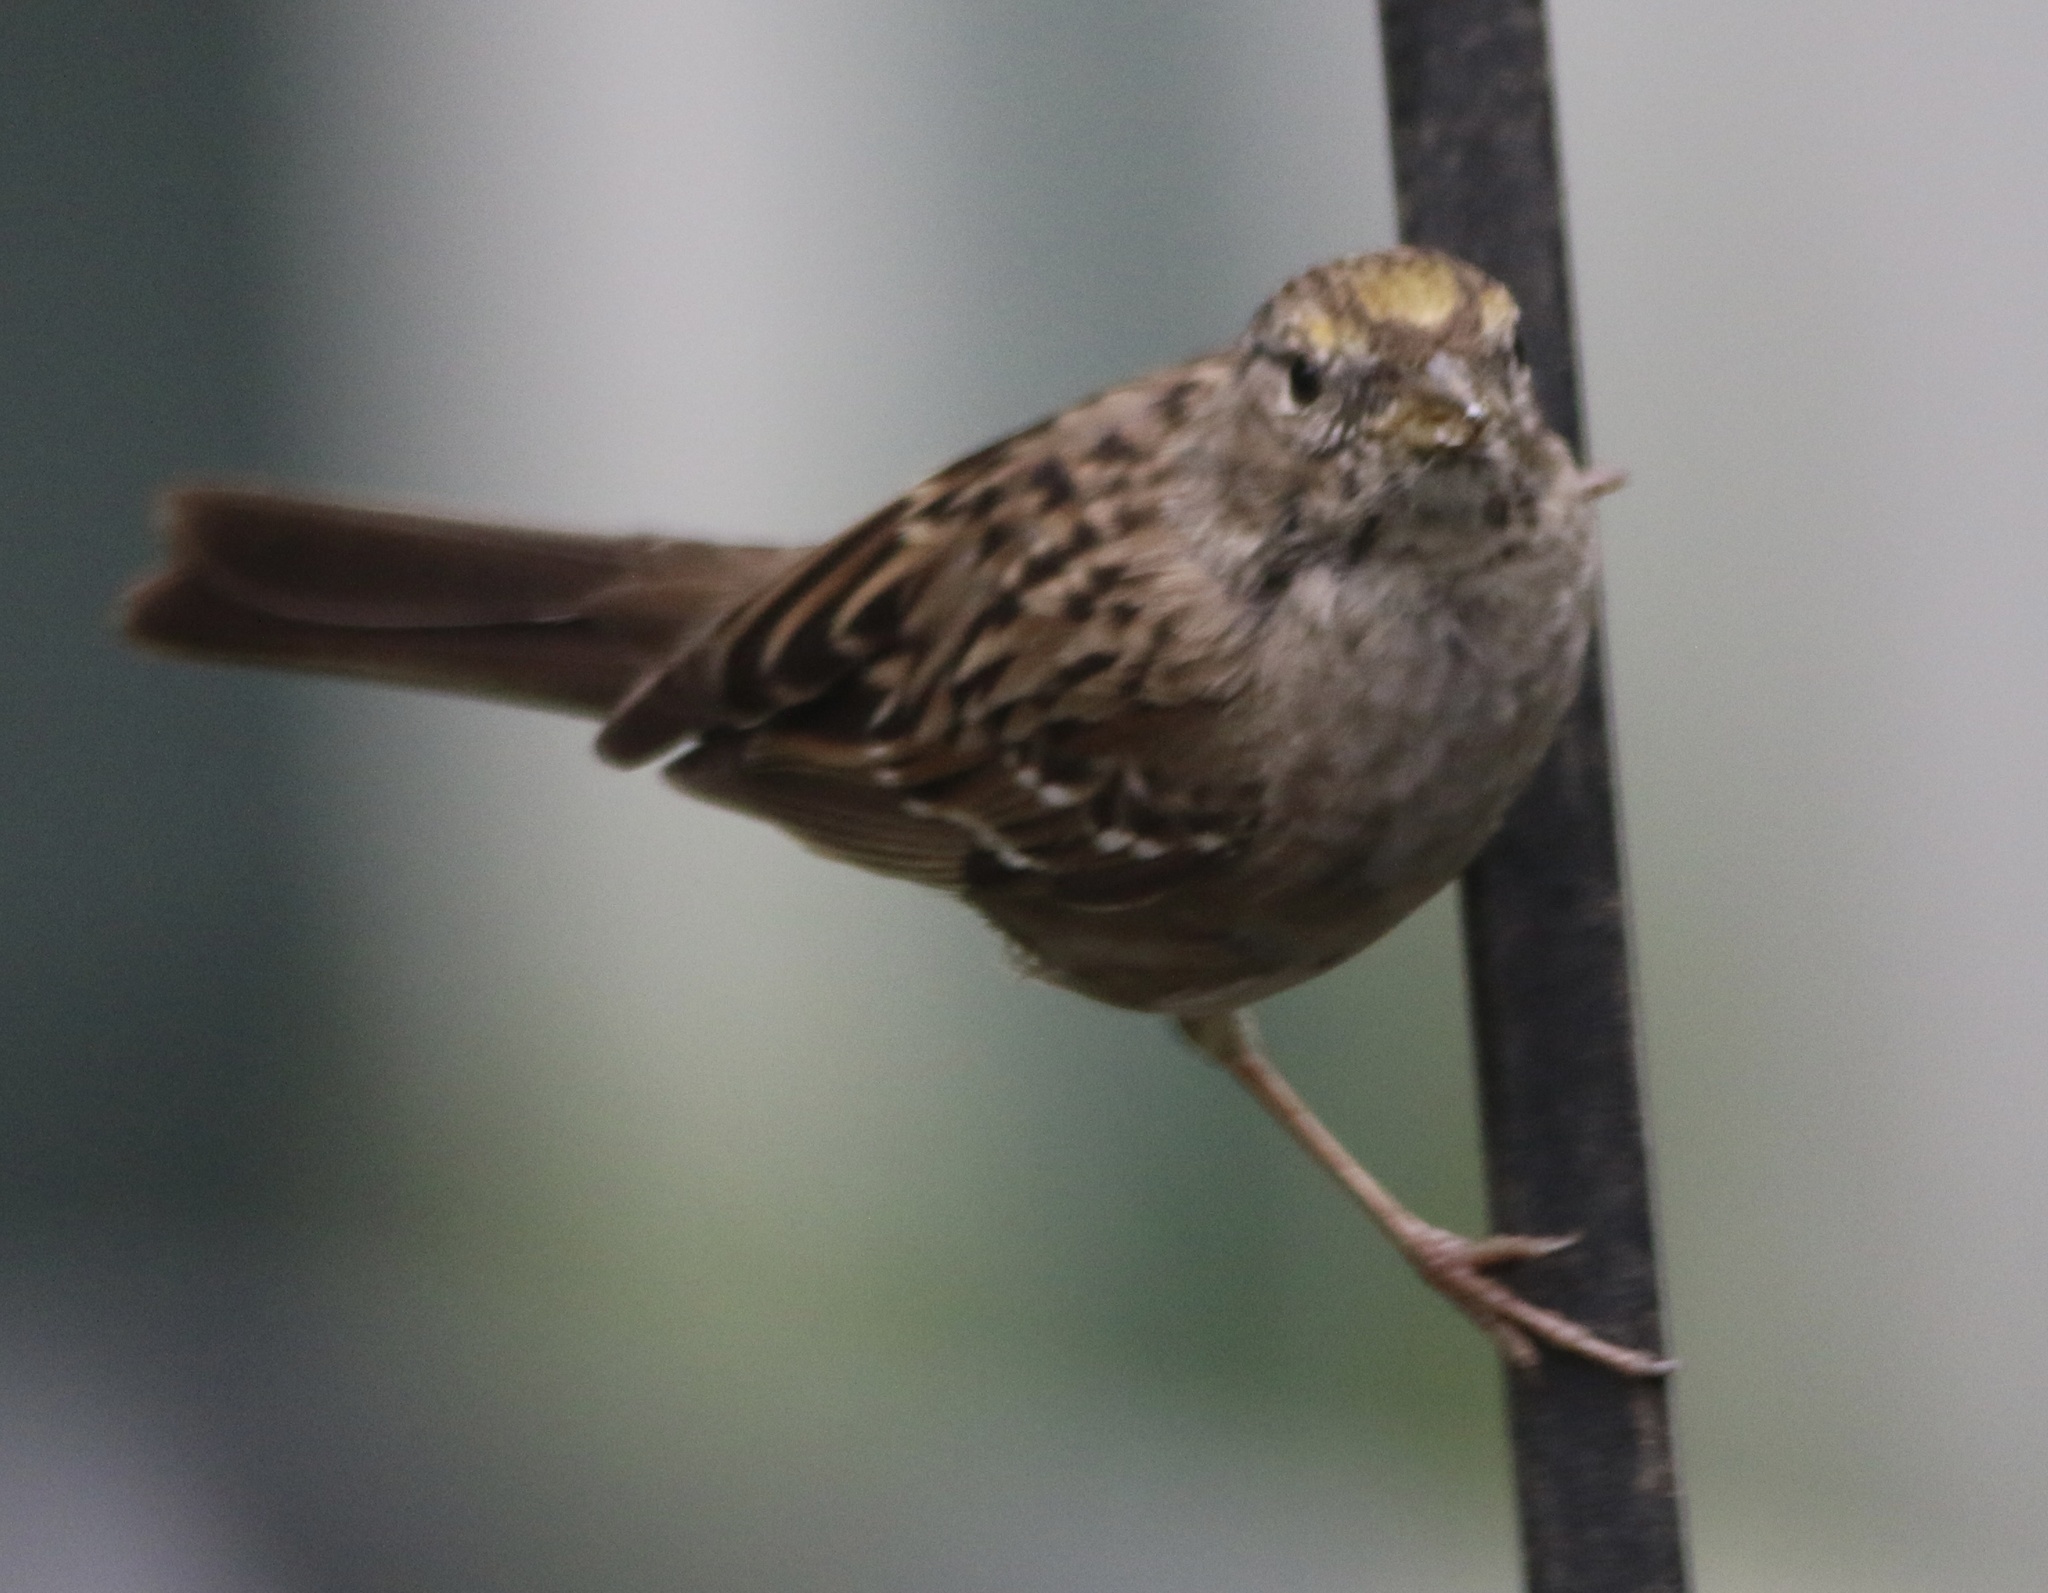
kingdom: Animalia
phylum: Chordata
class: Aves
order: Passeriformes
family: Passerellidae
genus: Zonotrichia
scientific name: Zonotrichia atricapilla
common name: Golden-crowned sparrow
